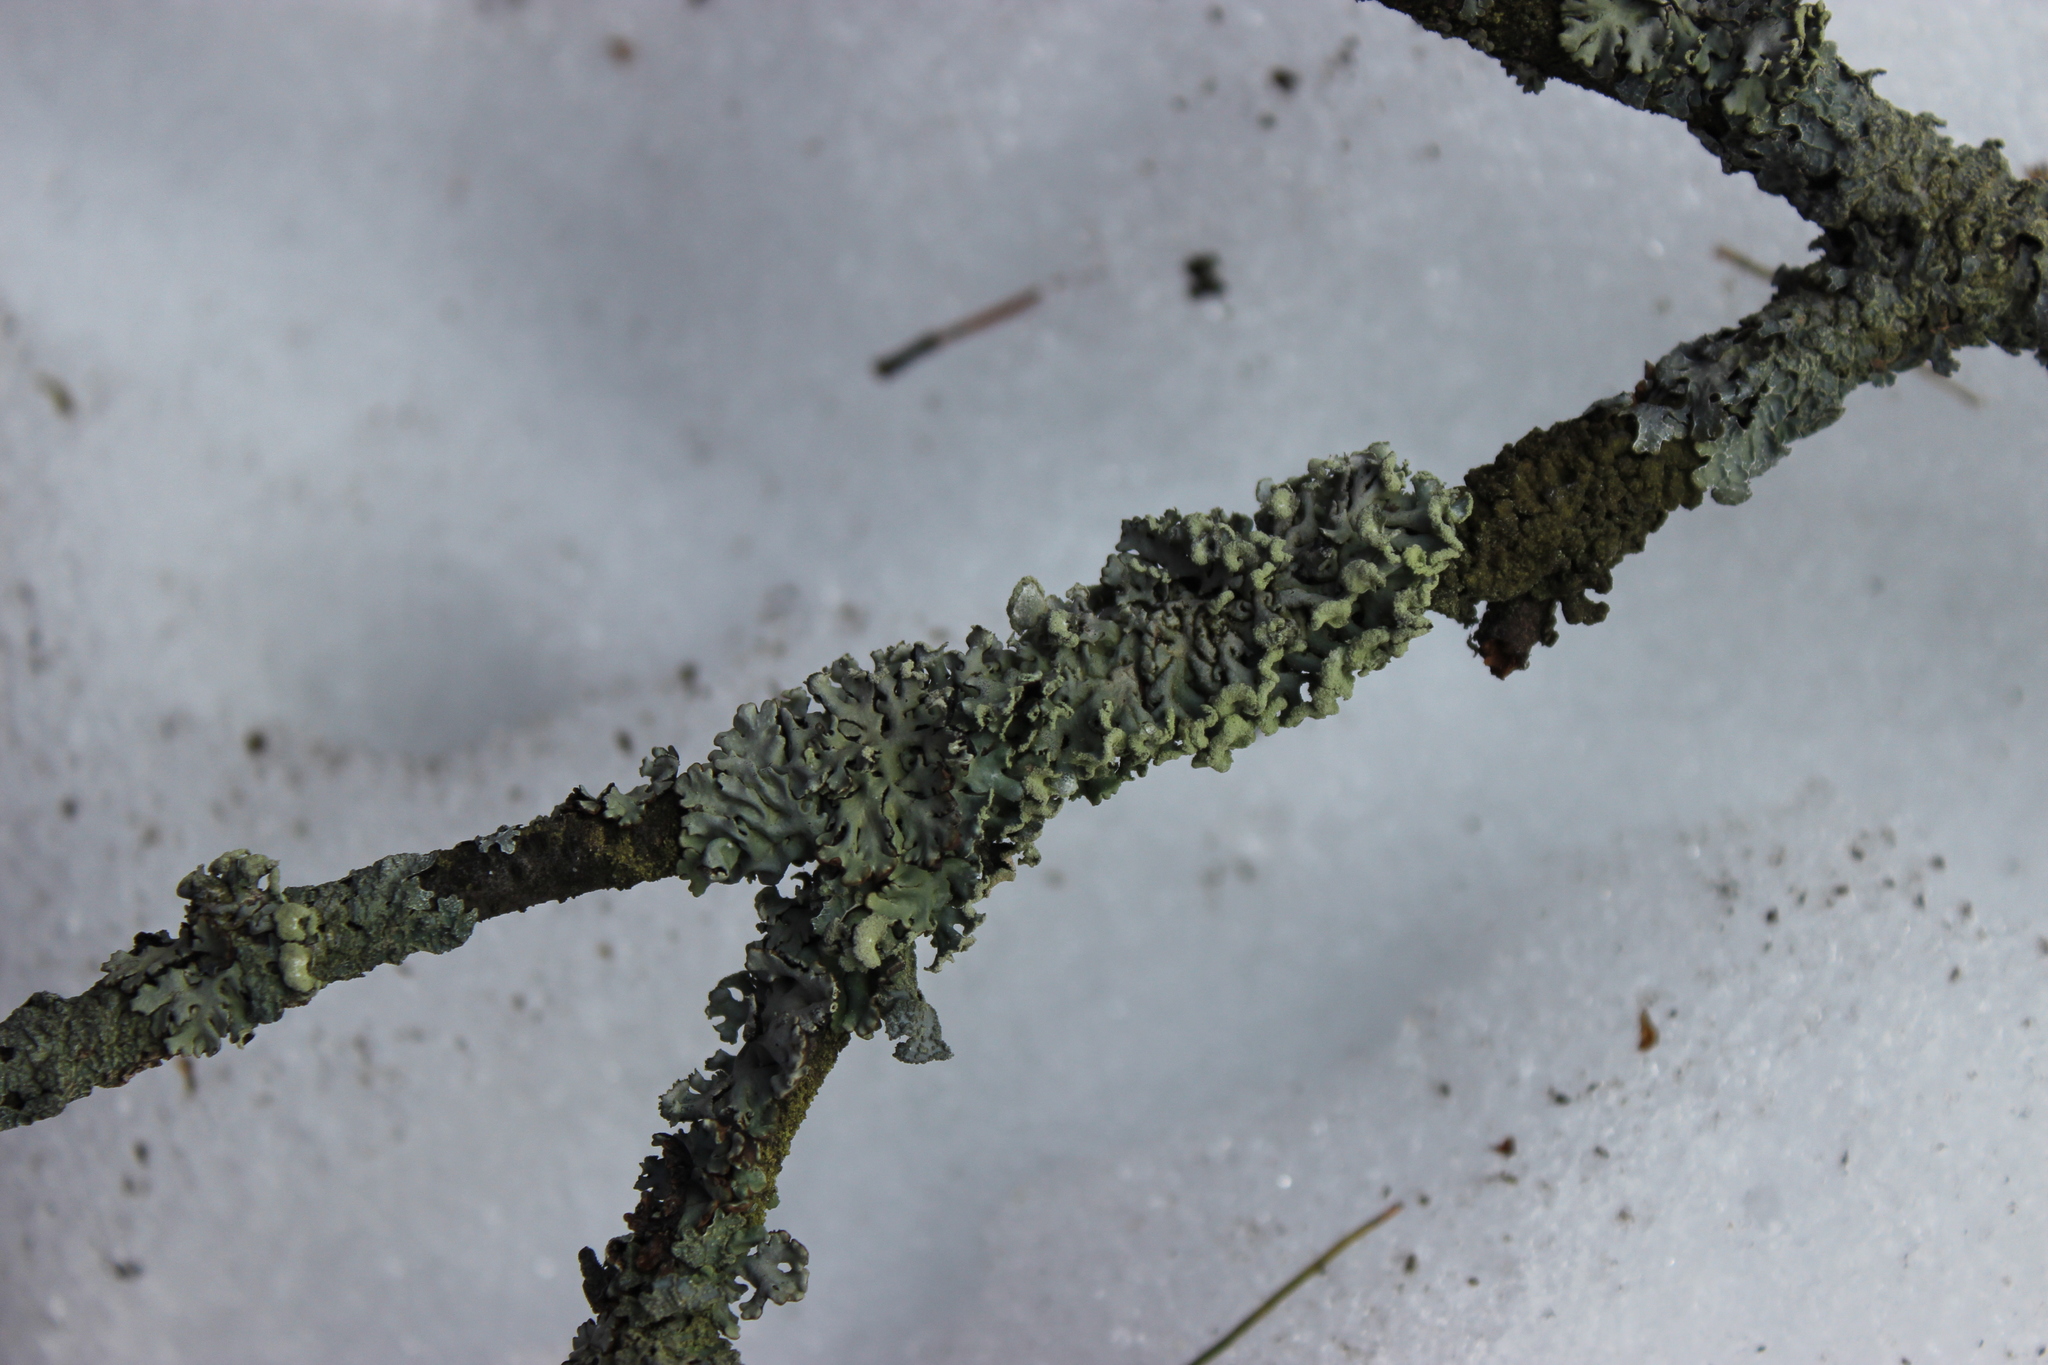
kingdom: Fungi
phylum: Ascomycota
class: Lecanoromycetes
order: Lecanorales
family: Parmeliaceae
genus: Hypogymnia
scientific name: Hypogymnia physodes
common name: Dark crottle
